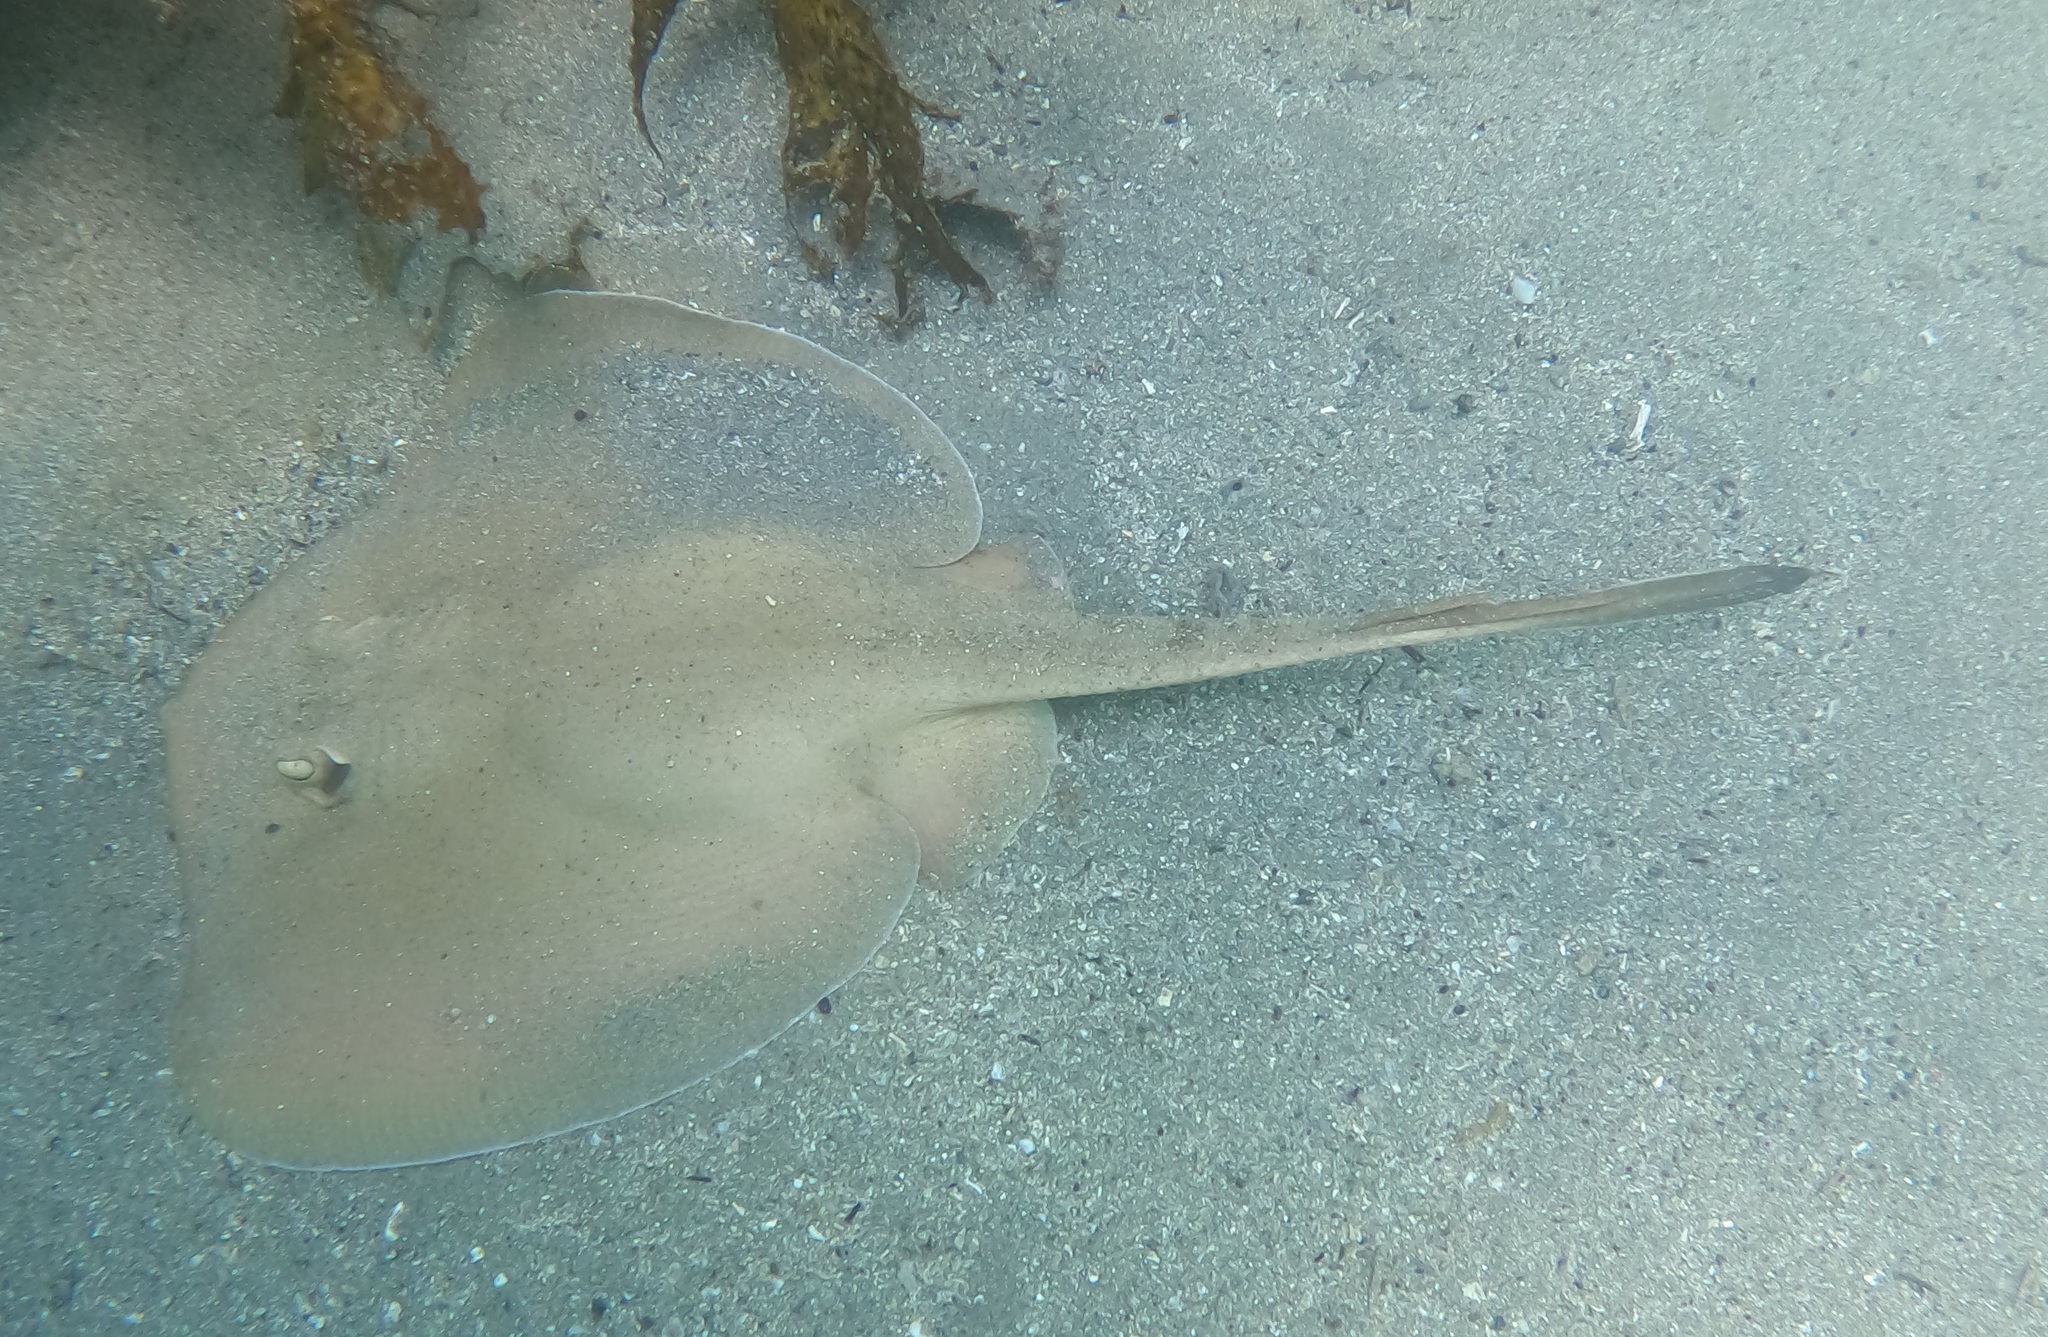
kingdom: Animalia
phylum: Chordata
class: Elasmobranchii
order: Myliobatiformes
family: Urolophidae
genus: Trygonoptera
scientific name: Trygonoptera testacea
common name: Common stingaree
